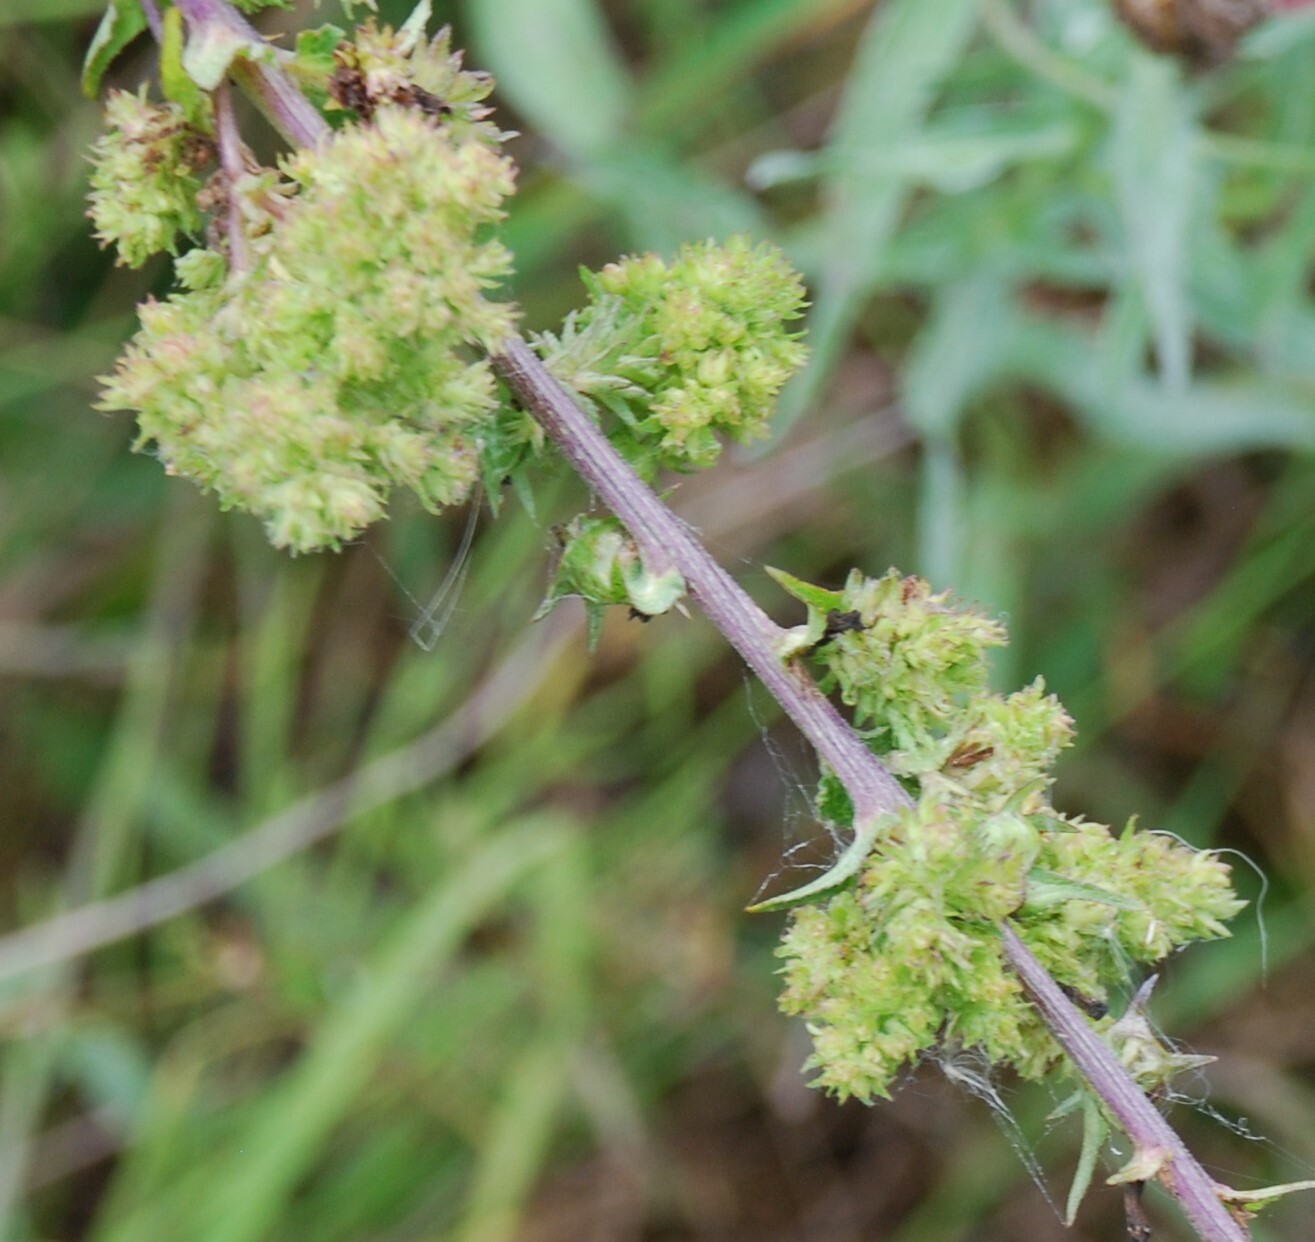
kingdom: Plantae
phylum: Tracheophyta
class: Magnoliopsida
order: Asterales
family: Campanulaceae
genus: Campanula
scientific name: Campanula bononiensis
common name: Pale bellflower
